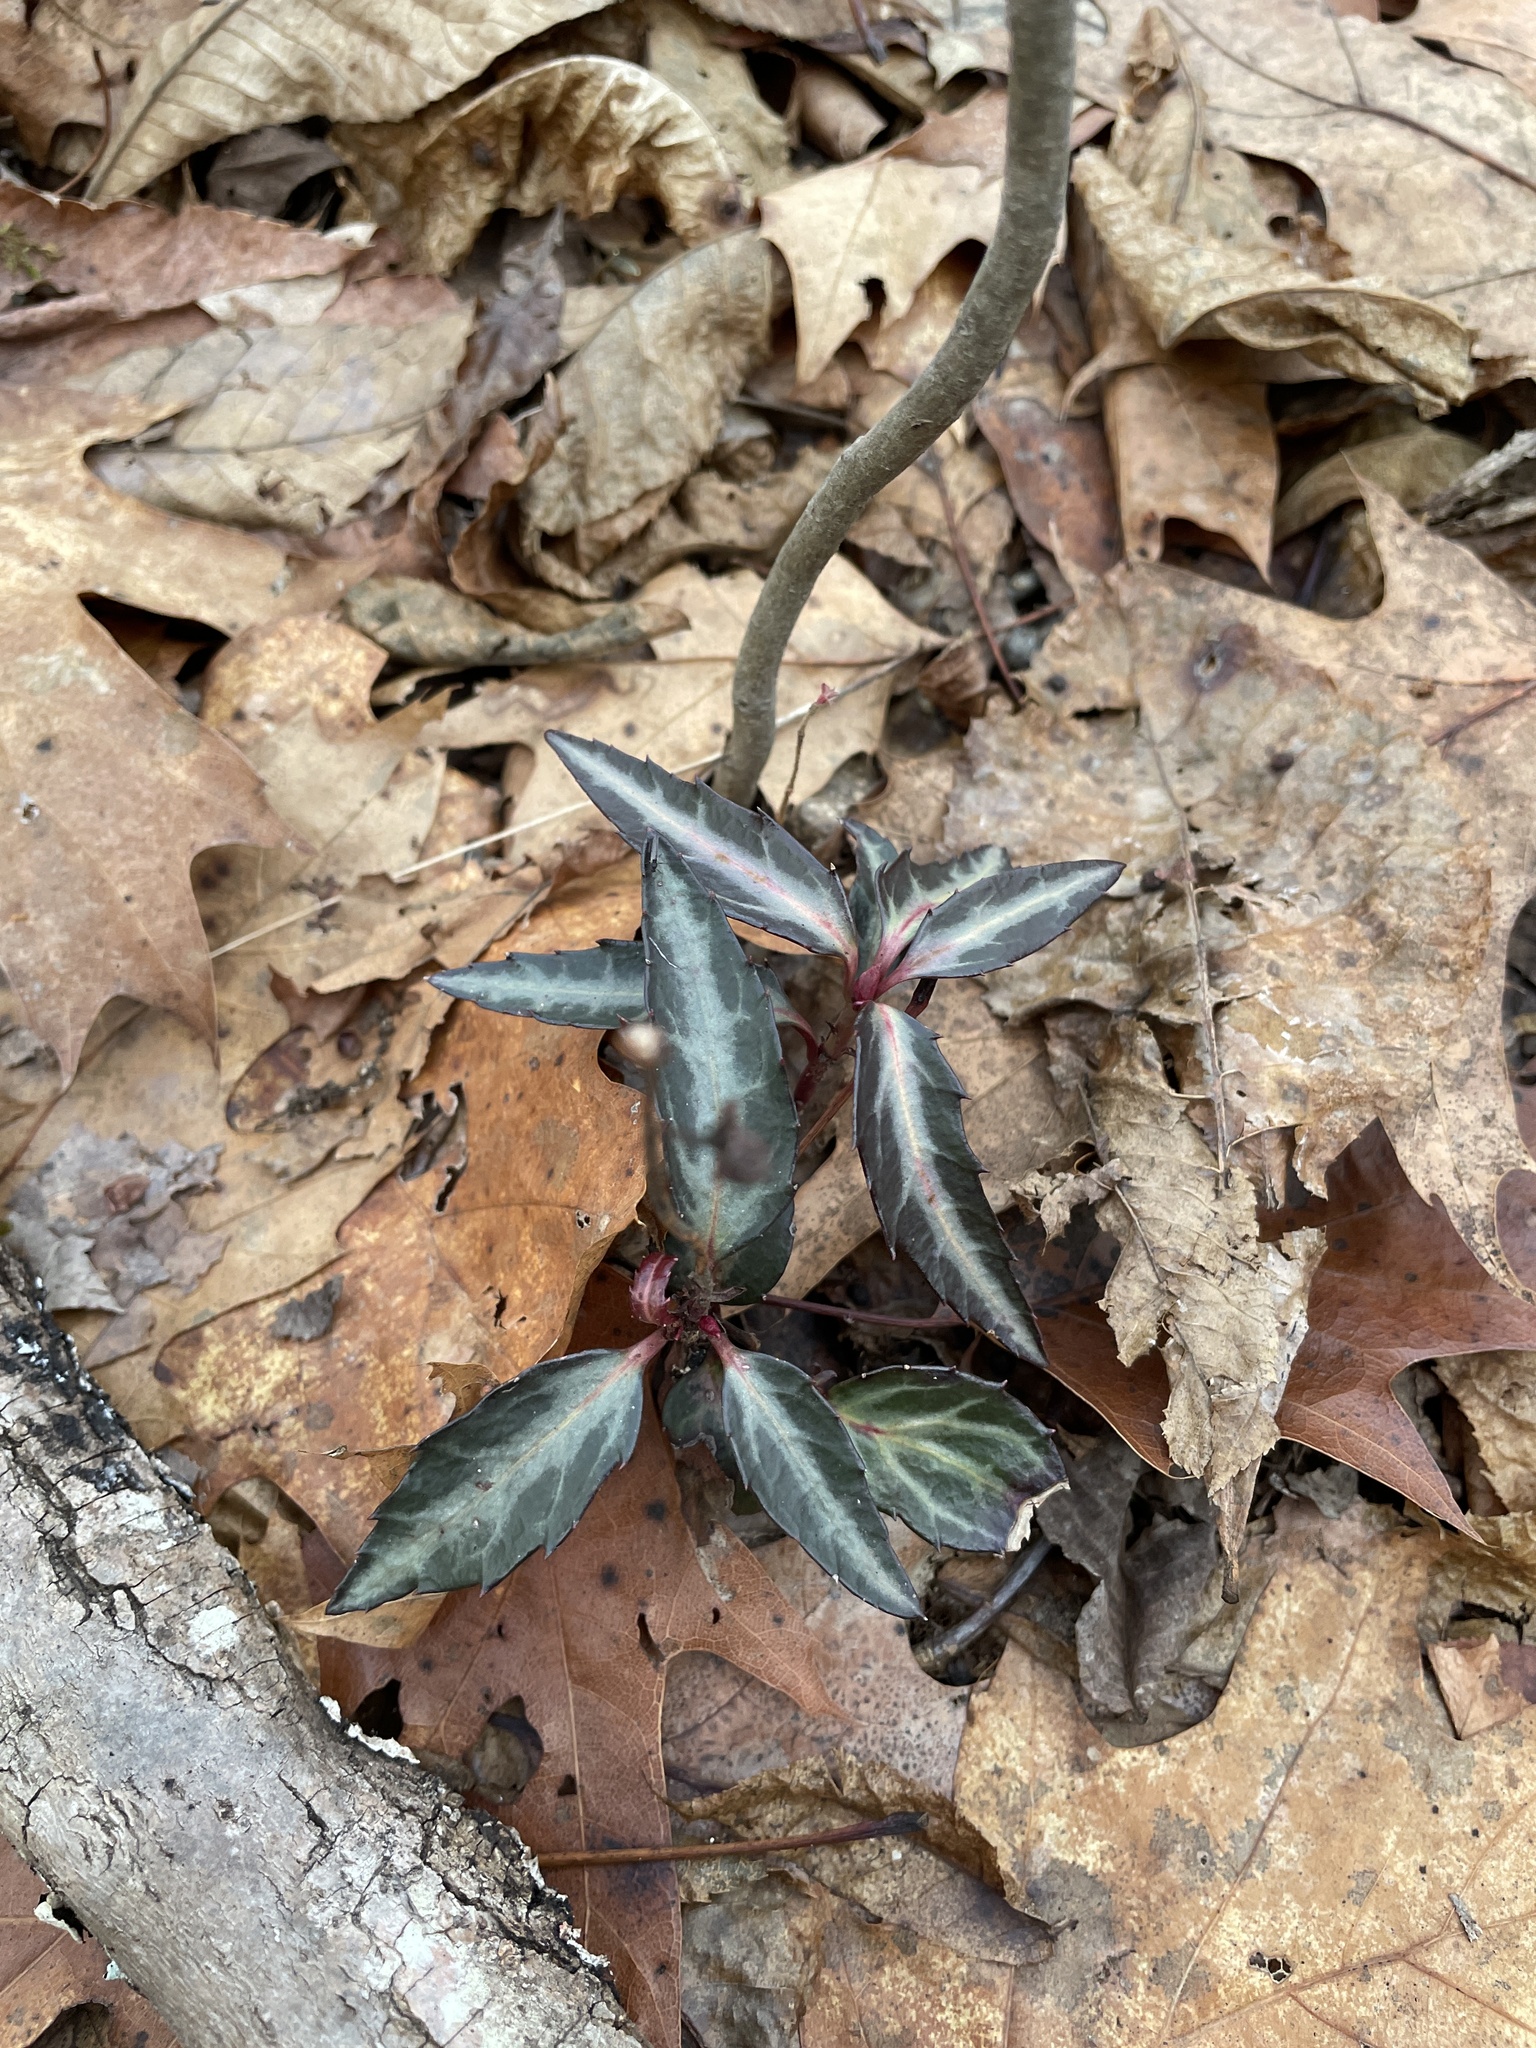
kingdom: Plantae
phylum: Tracheophyta
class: Magnoliopsida
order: Ericales
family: Ericaceae
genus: Chimaphila
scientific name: Chimaphila maculata
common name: Spotted pipsissewa
